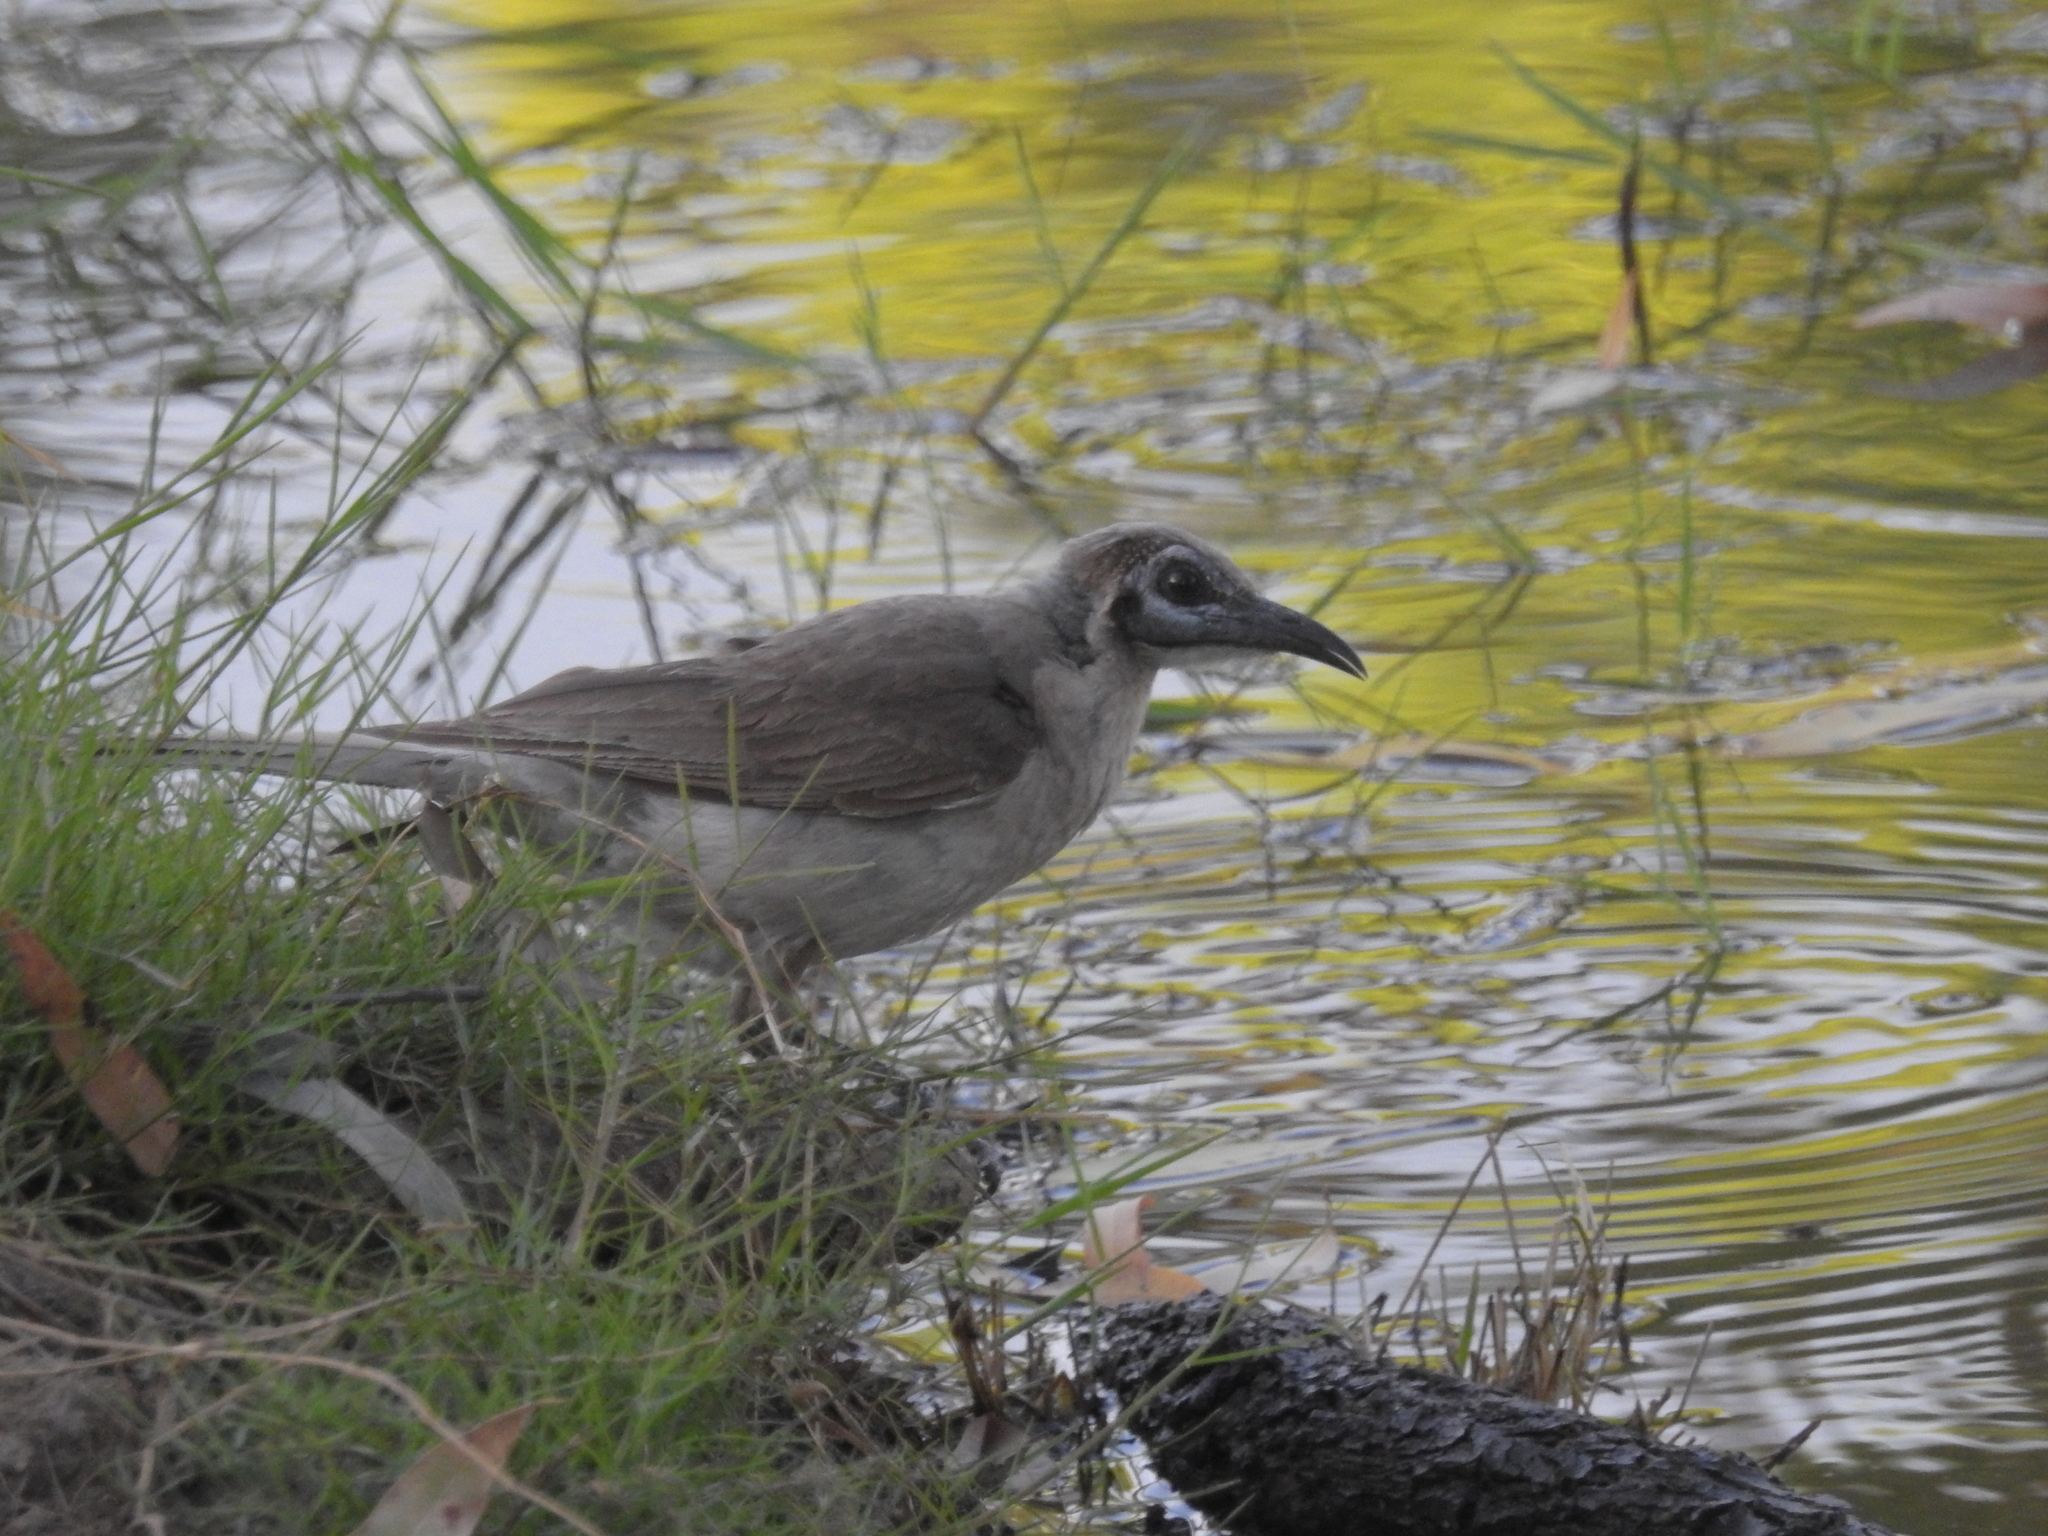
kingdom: Animalia
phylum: Chordata
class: Aves
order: Passeriformes
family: Meliphagidae
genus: Philemon
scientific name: Philemon citreogularis
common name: Little friarbird
